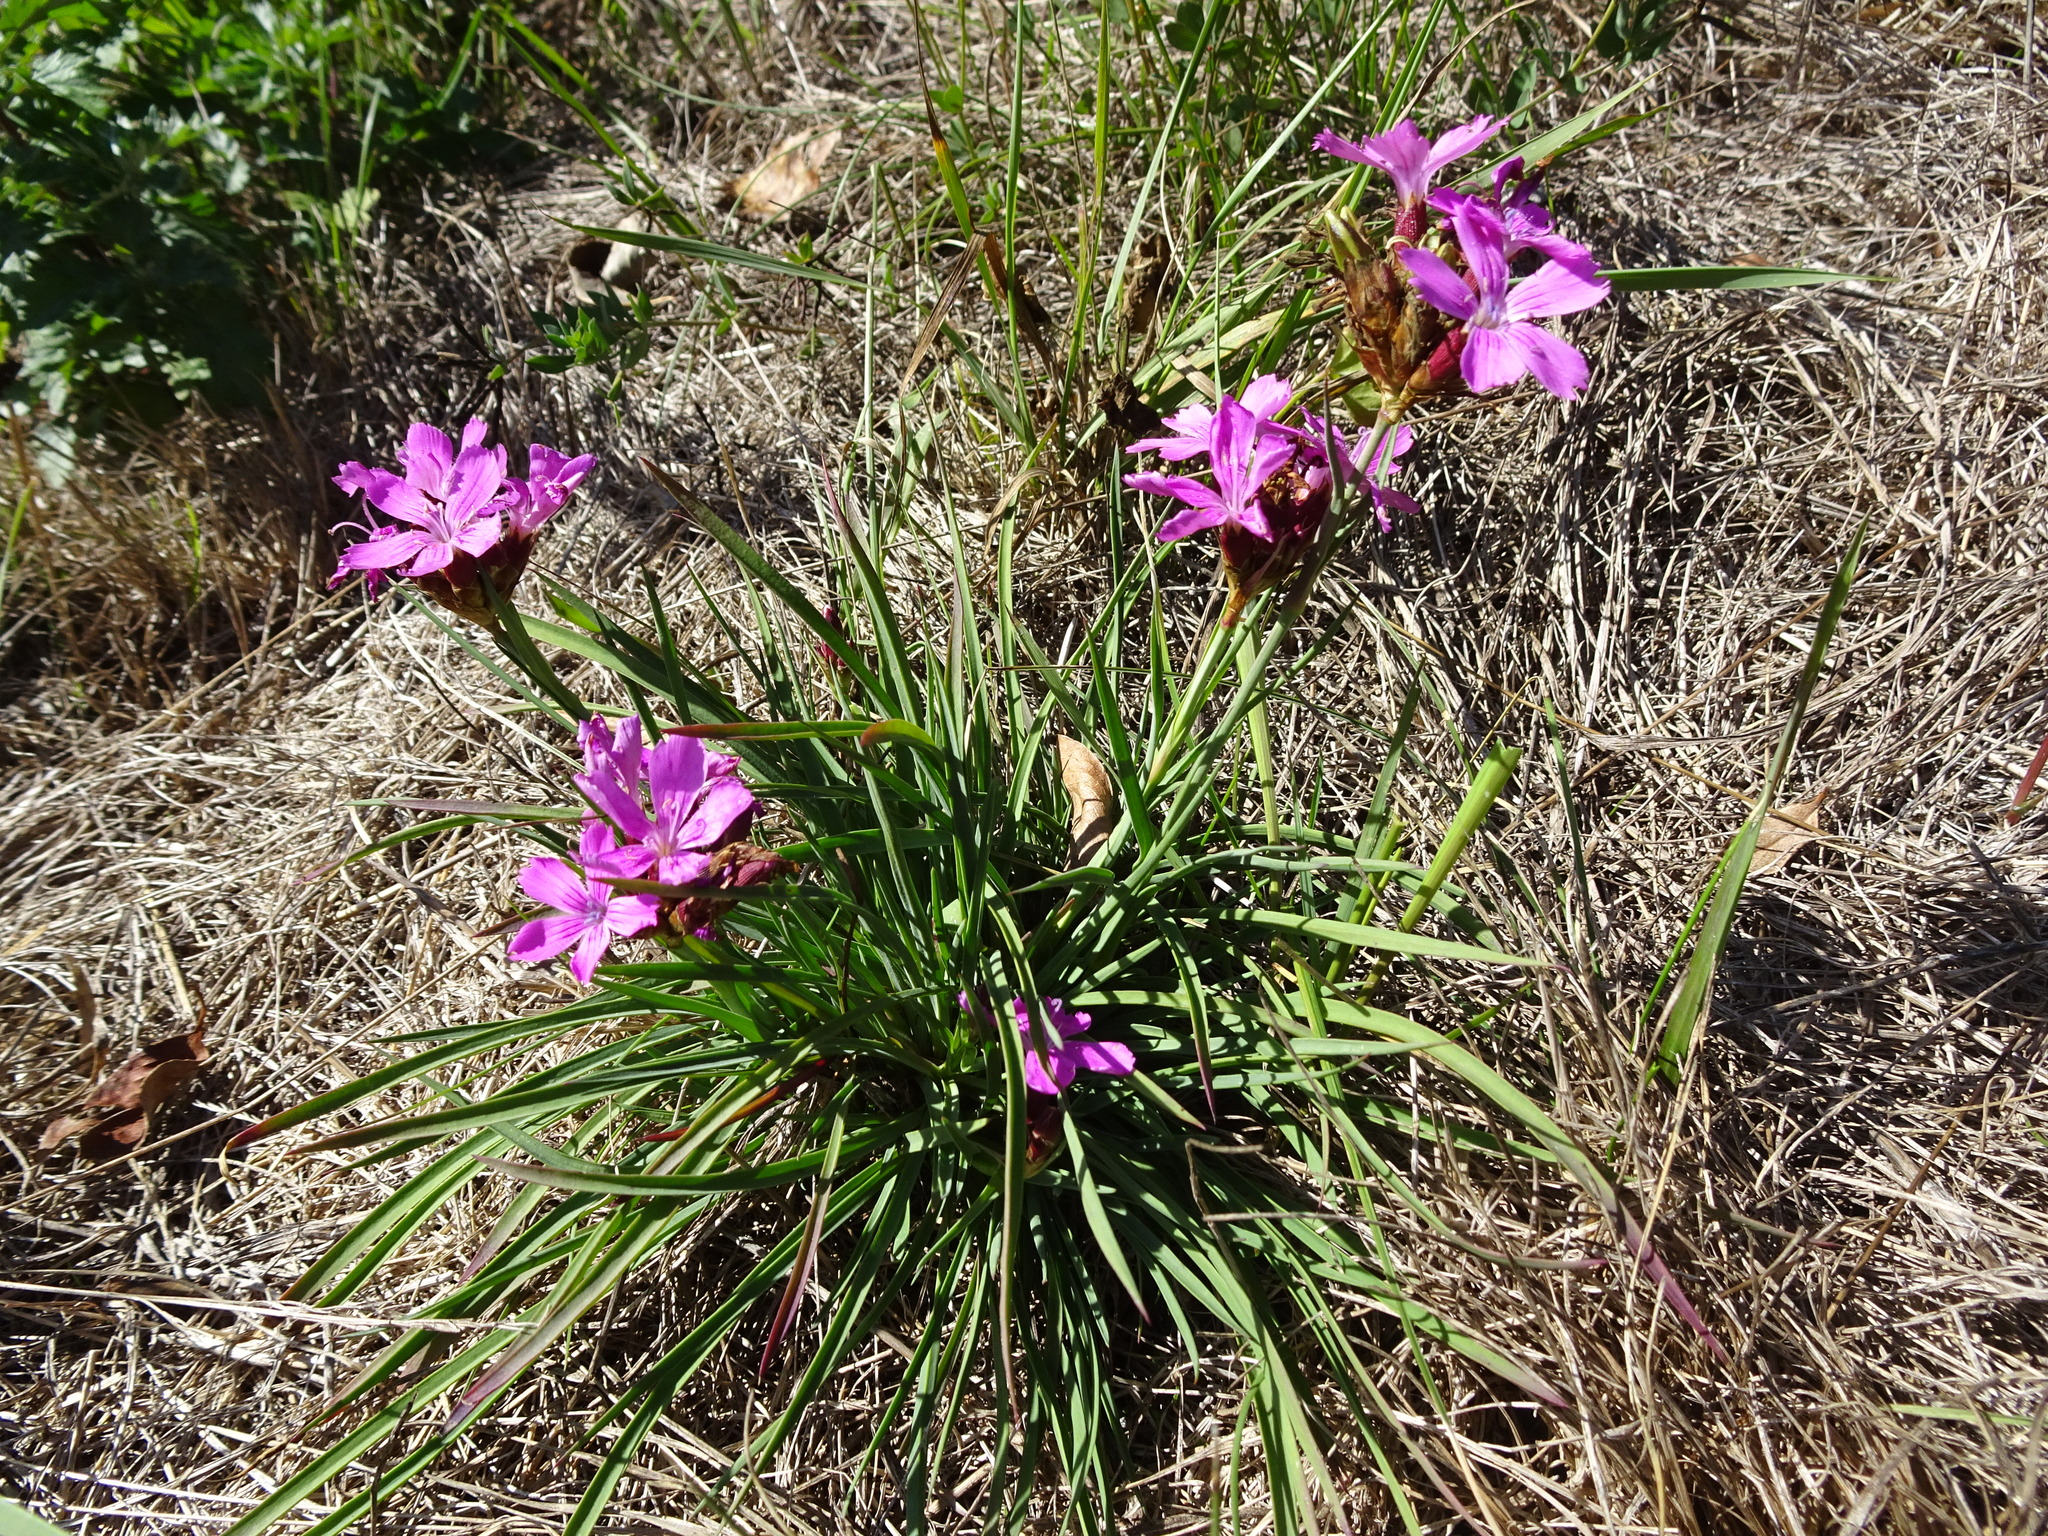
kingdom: Plantae
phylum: Tracheophyta
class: Magnoliopsida
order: Caryophyllales
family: Caryophyllaceae
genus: Dianthus
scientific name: Dianthus carthusianorum
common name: Carthusian pink
